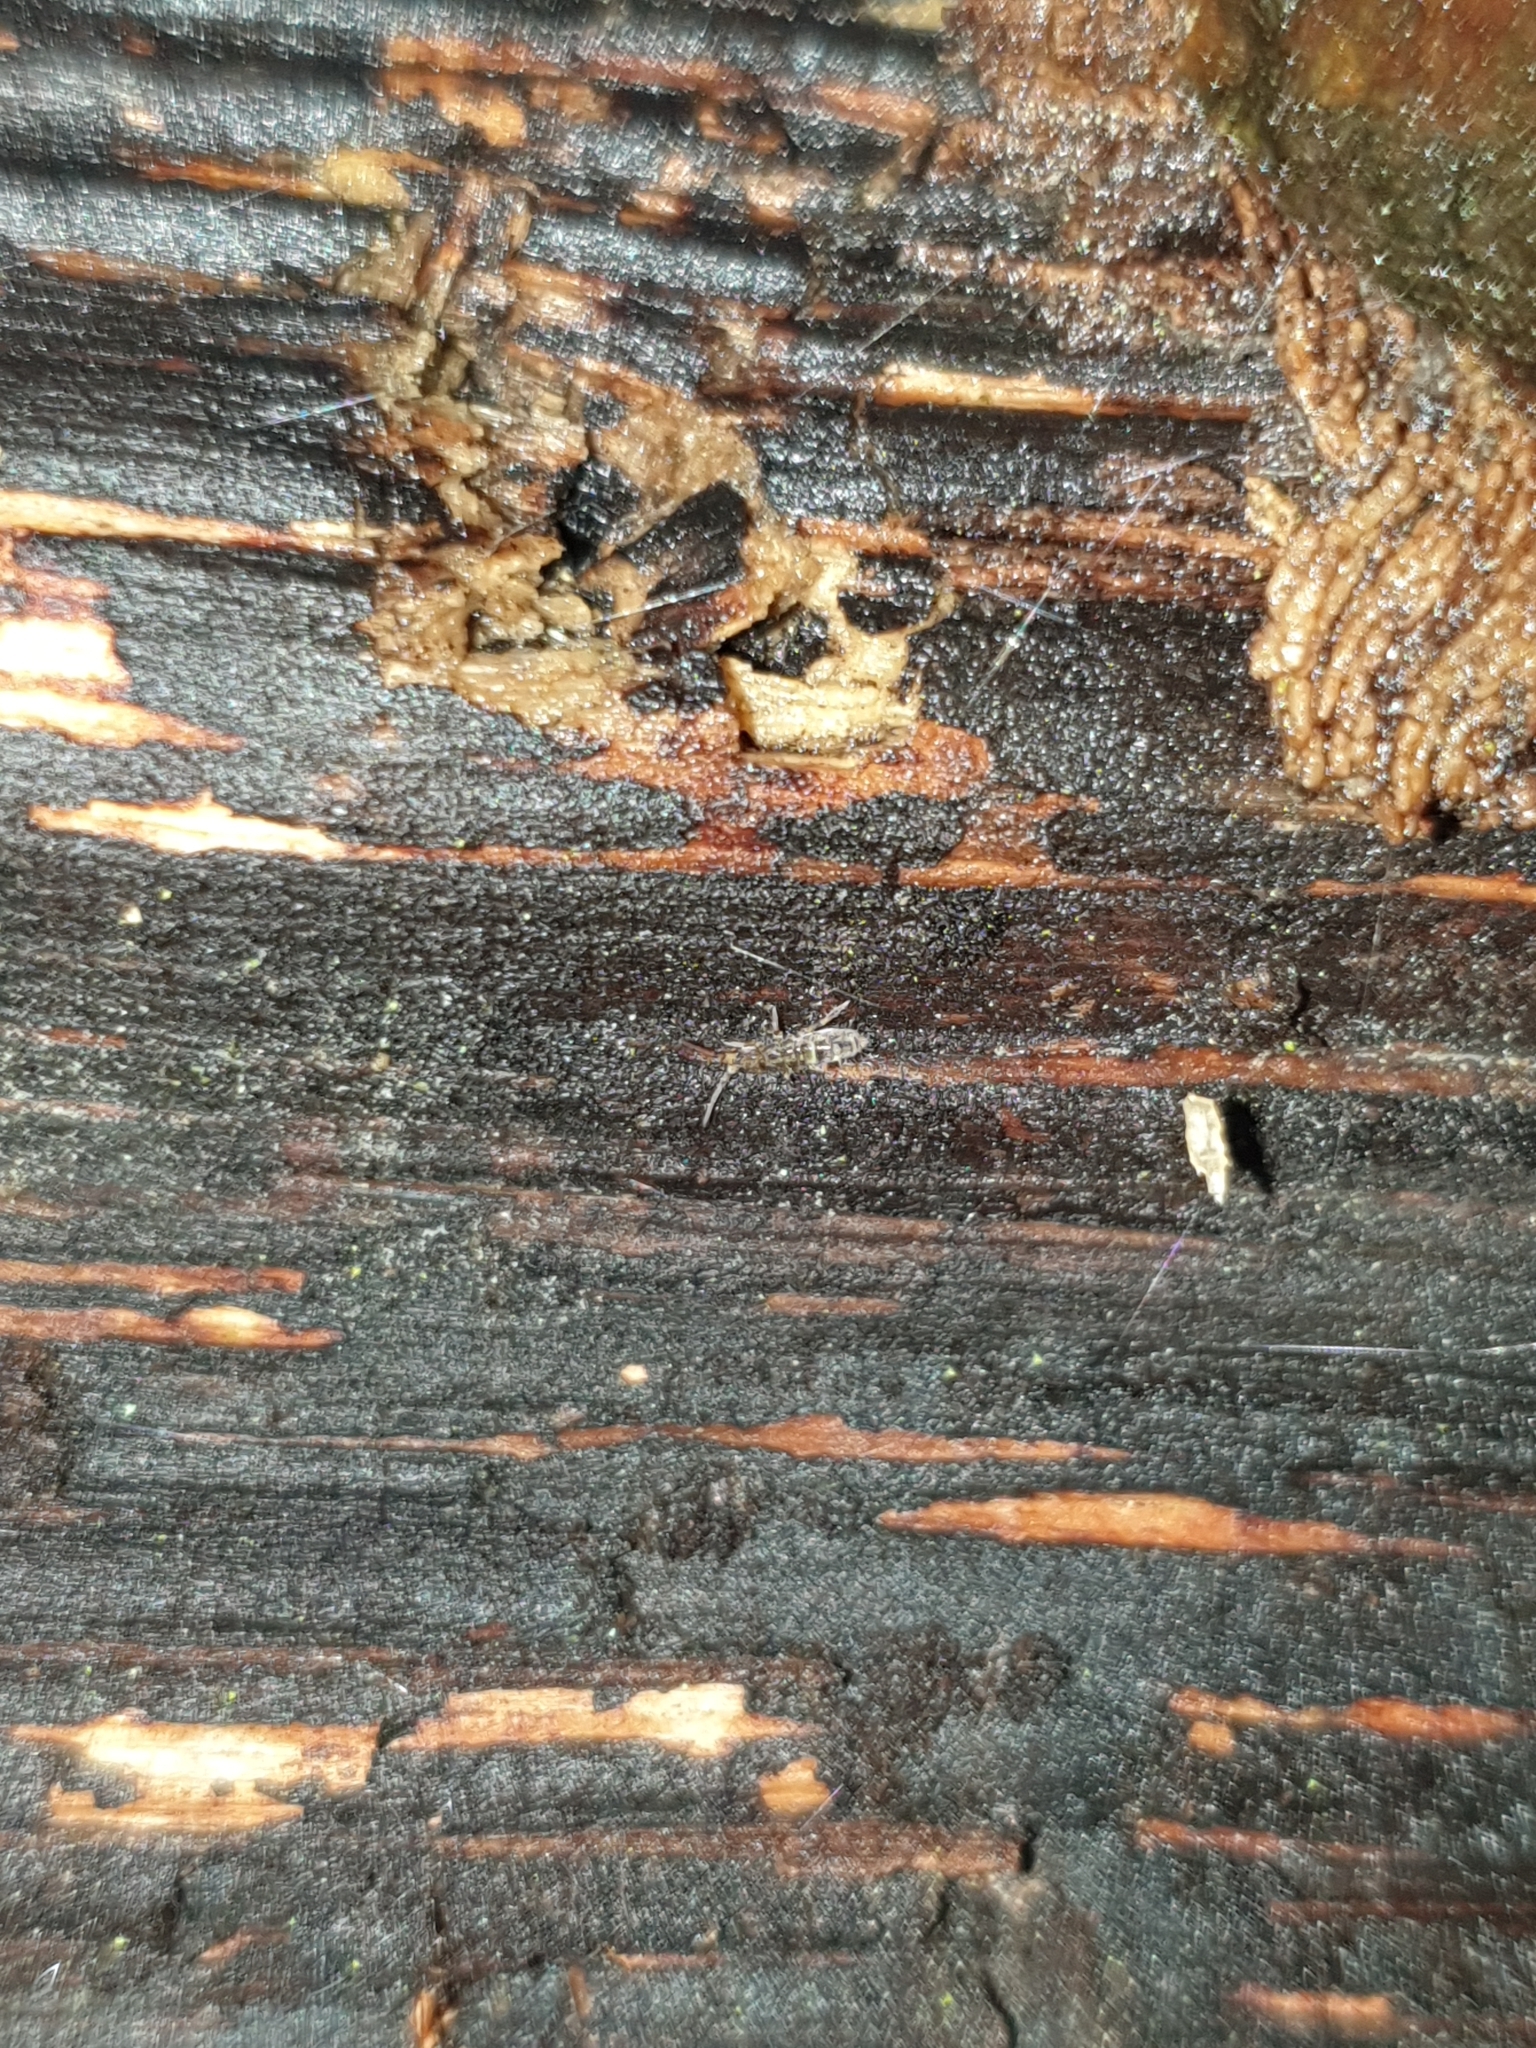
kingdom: Animalia
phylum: Arthropoda
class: Collembola
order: Entomobryomorpha
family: Orchesellidae
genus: Orchesella
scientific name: Orchesella cincta
